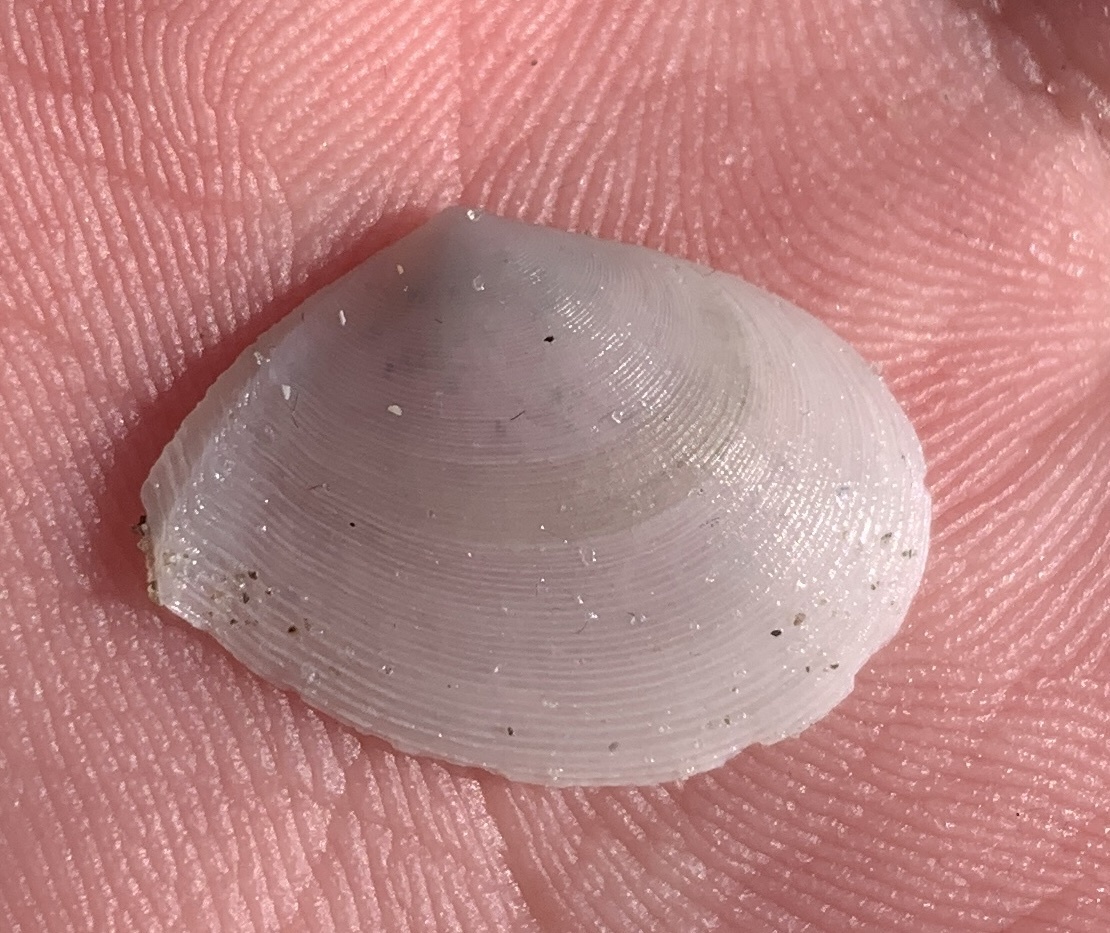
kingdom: Animalia
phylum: Mollusca
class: Bivalvia
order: Cardiida
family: Tellinidae
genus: Serratina
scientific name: Serratina aequistriata
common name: Striate tellin
